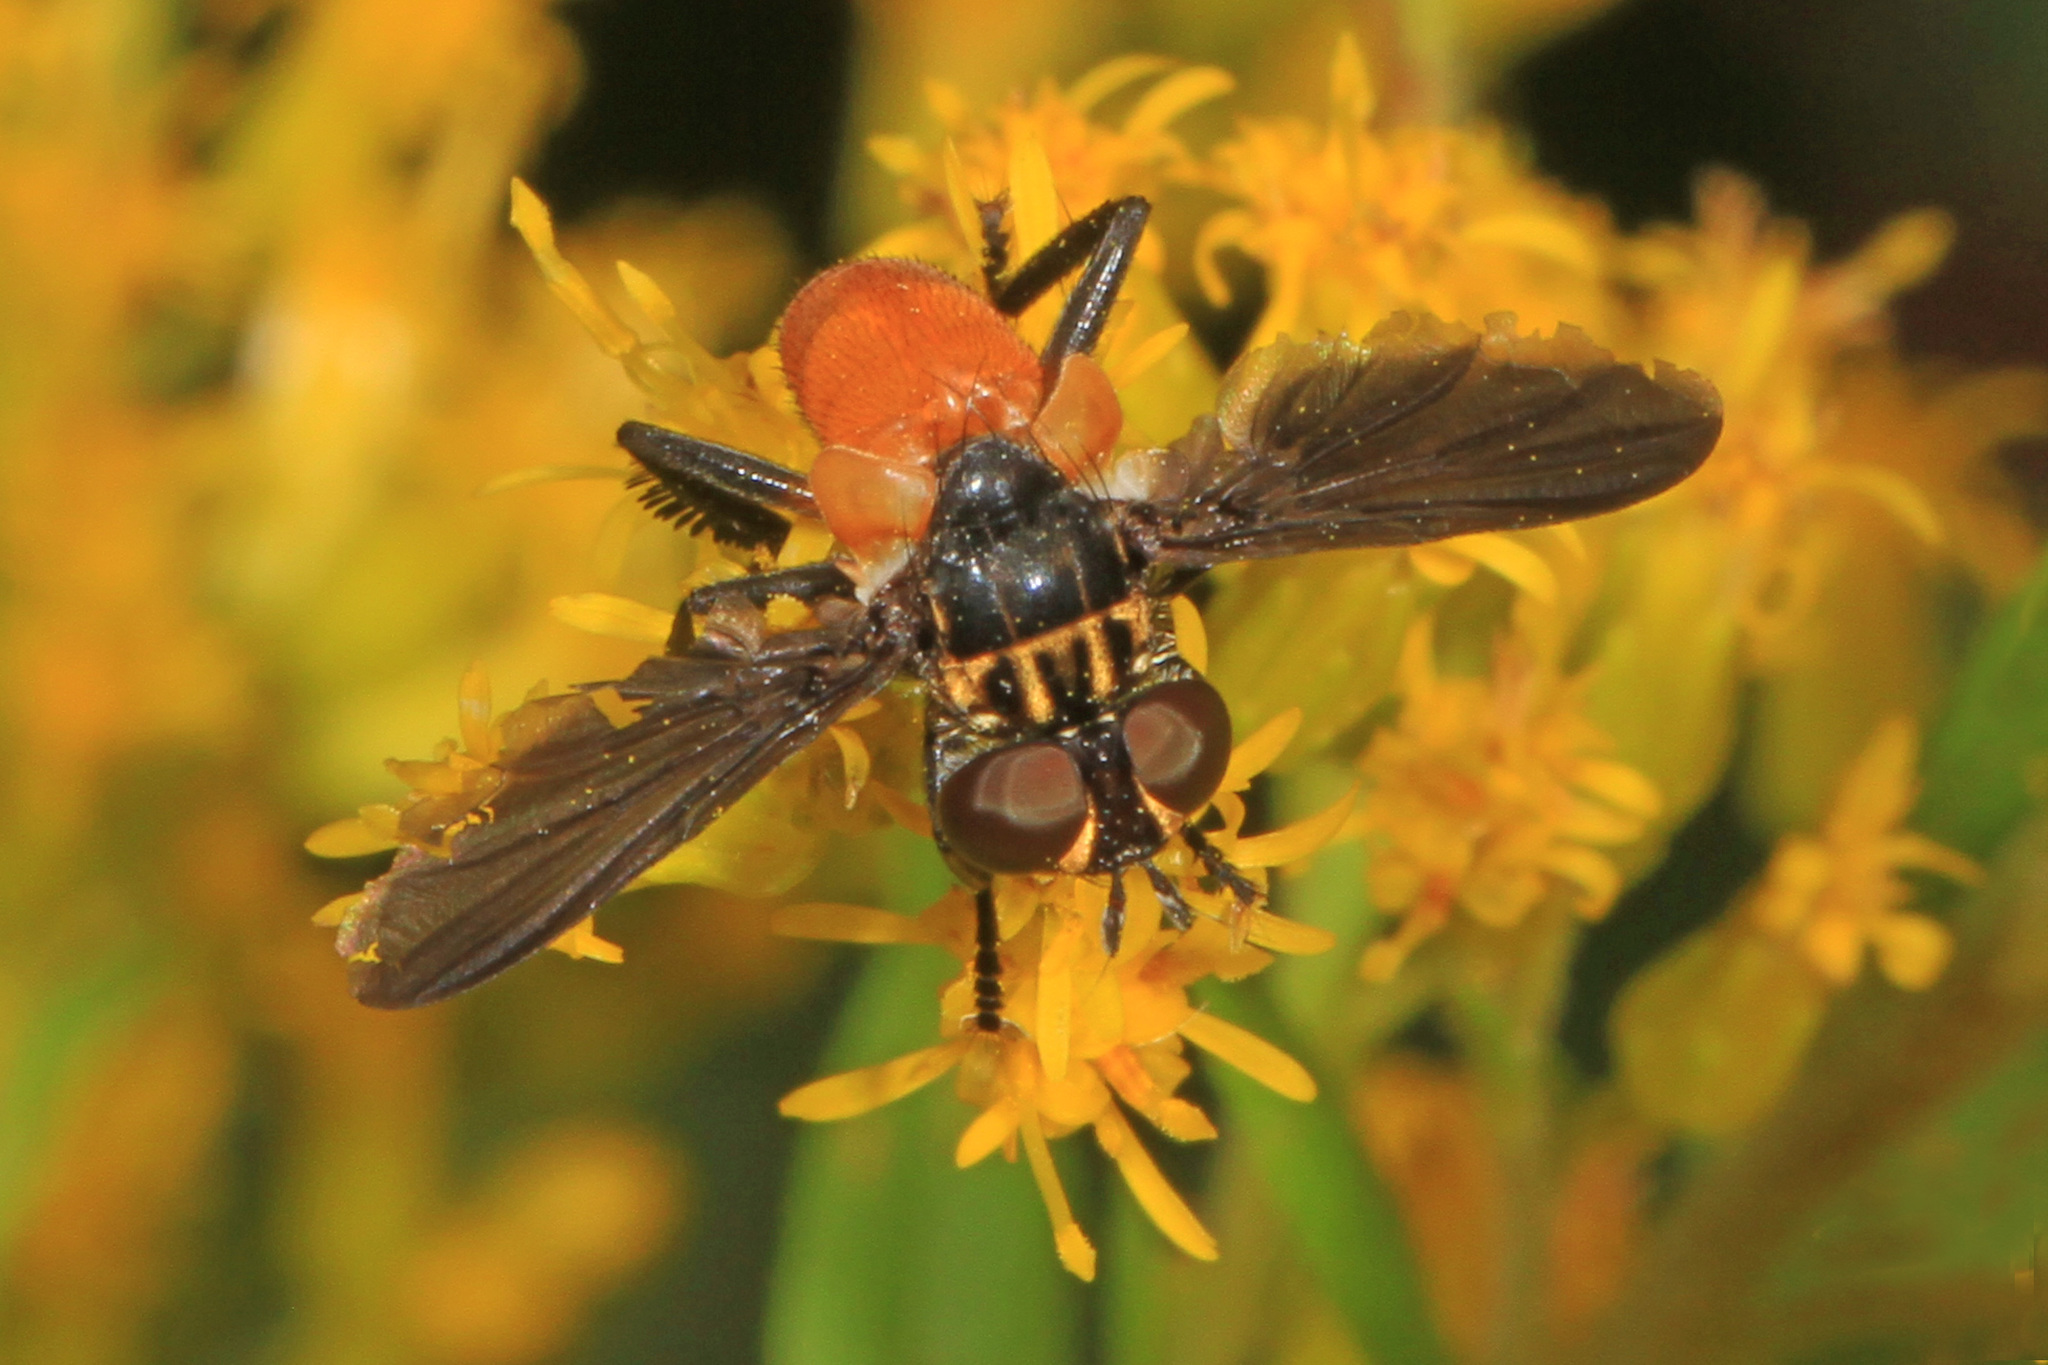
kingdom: Animalia
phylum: Arthropoda
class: Insecta
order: Diptera
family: Tachinidae
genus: Trichopoda
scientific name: Trichopoda pennipes
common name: Tachinid fly
